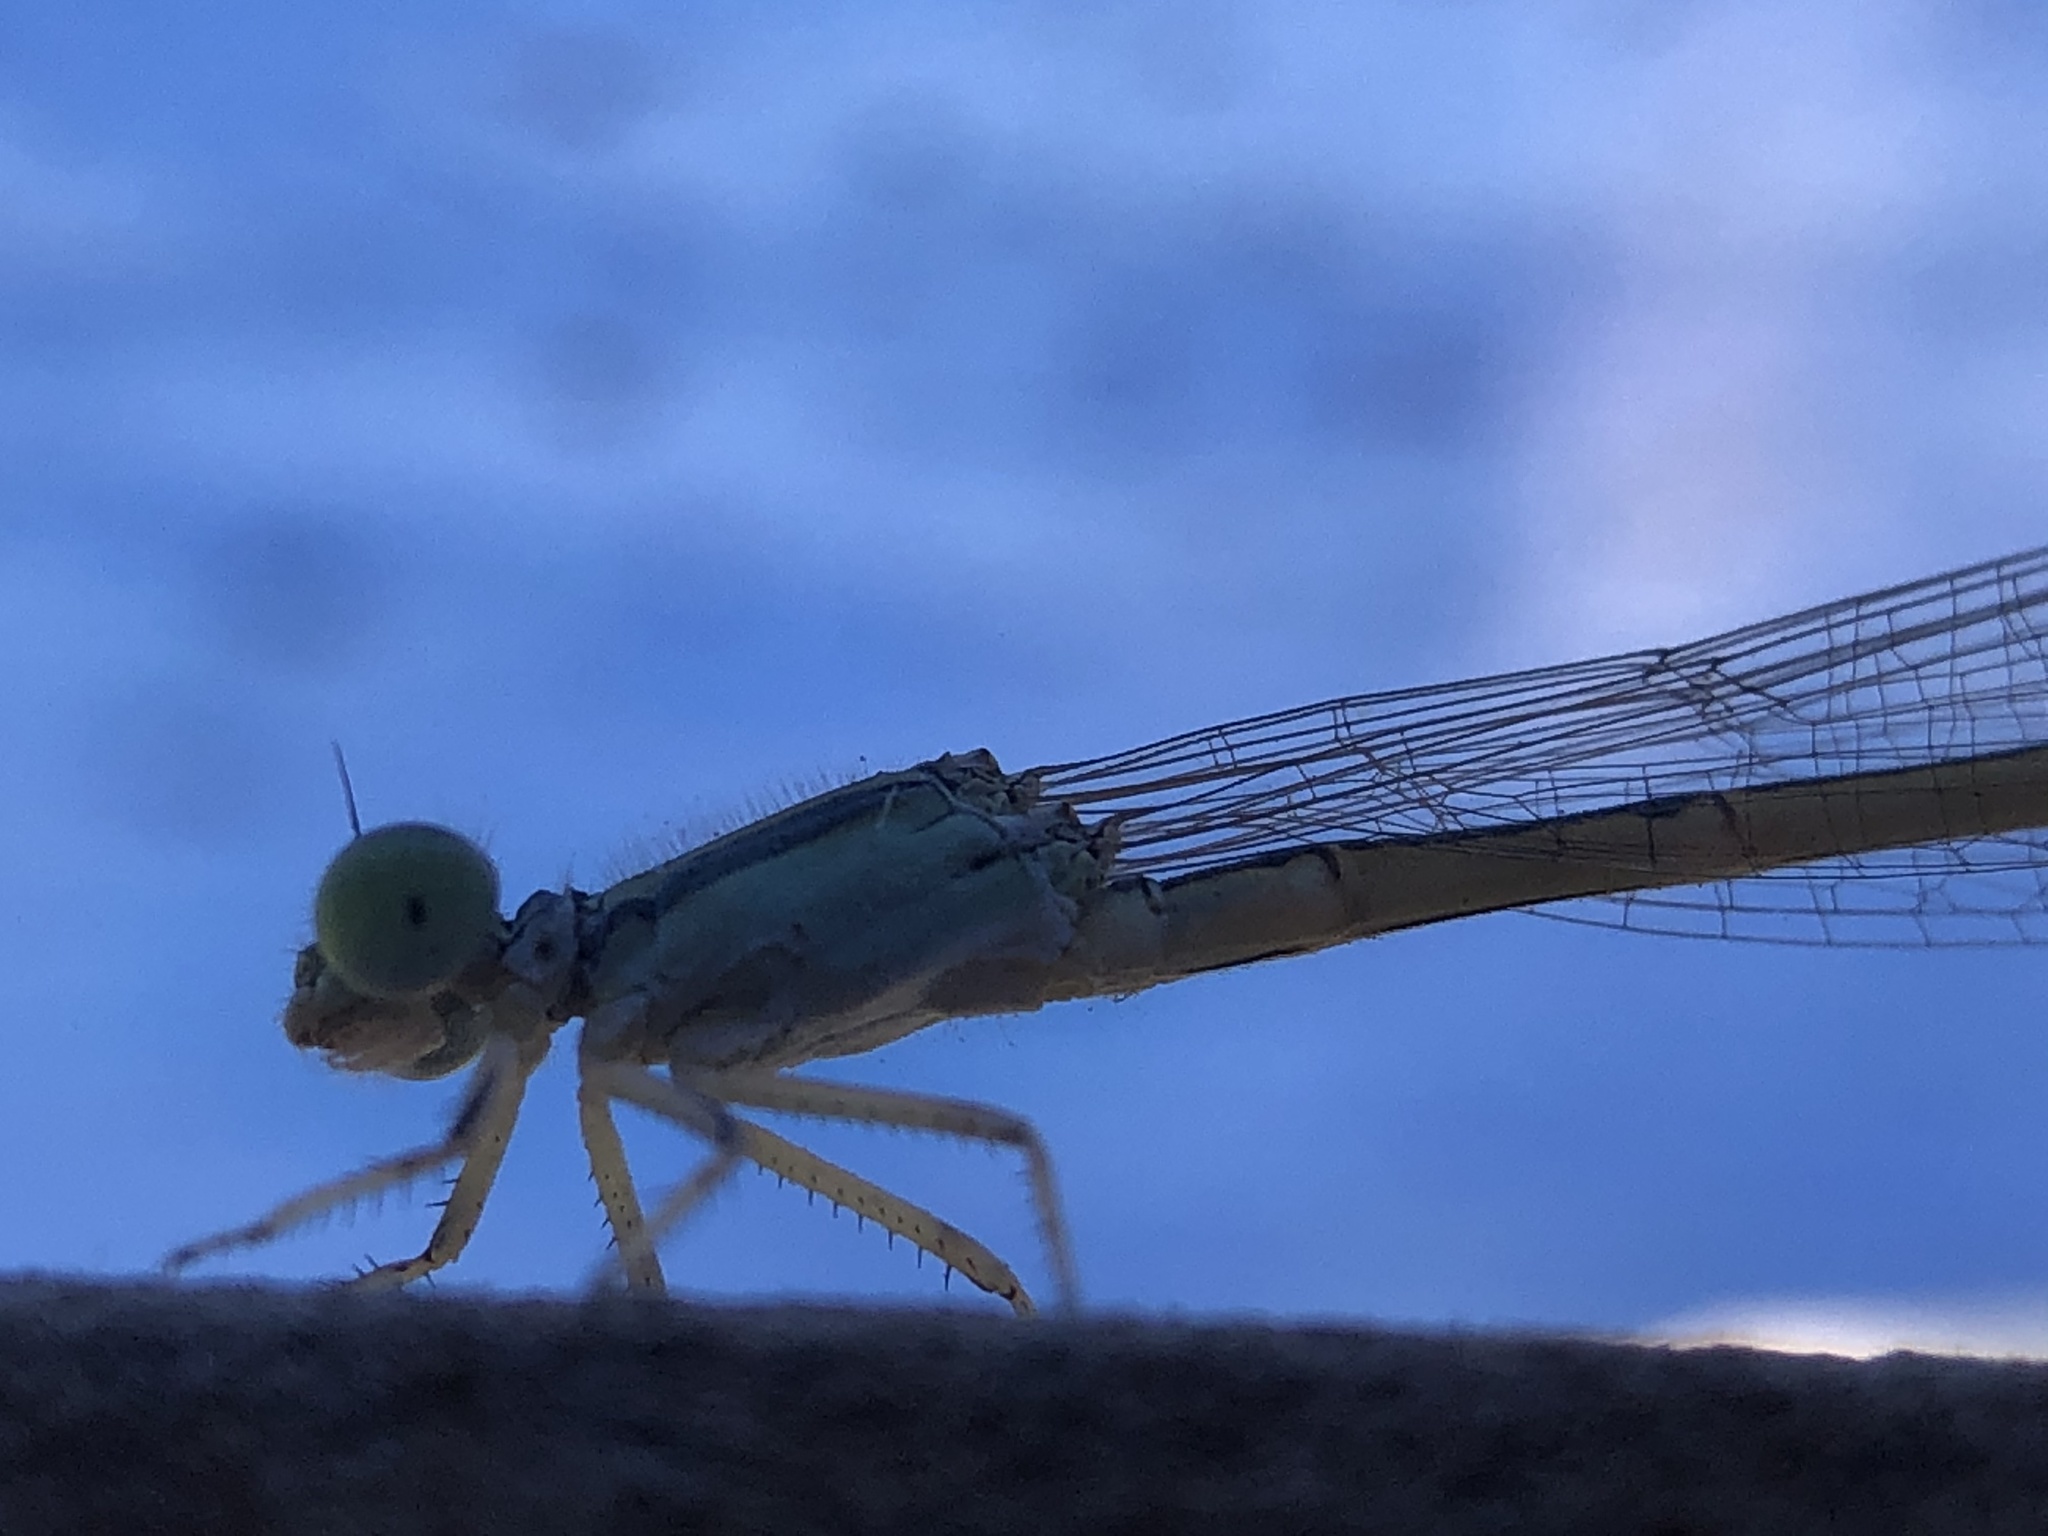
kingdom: Animalia
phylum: Arthropoda
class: Insecta
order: Odonata
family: Coenagrionidae
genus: Ischnura
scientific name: Ischnura rubilio
